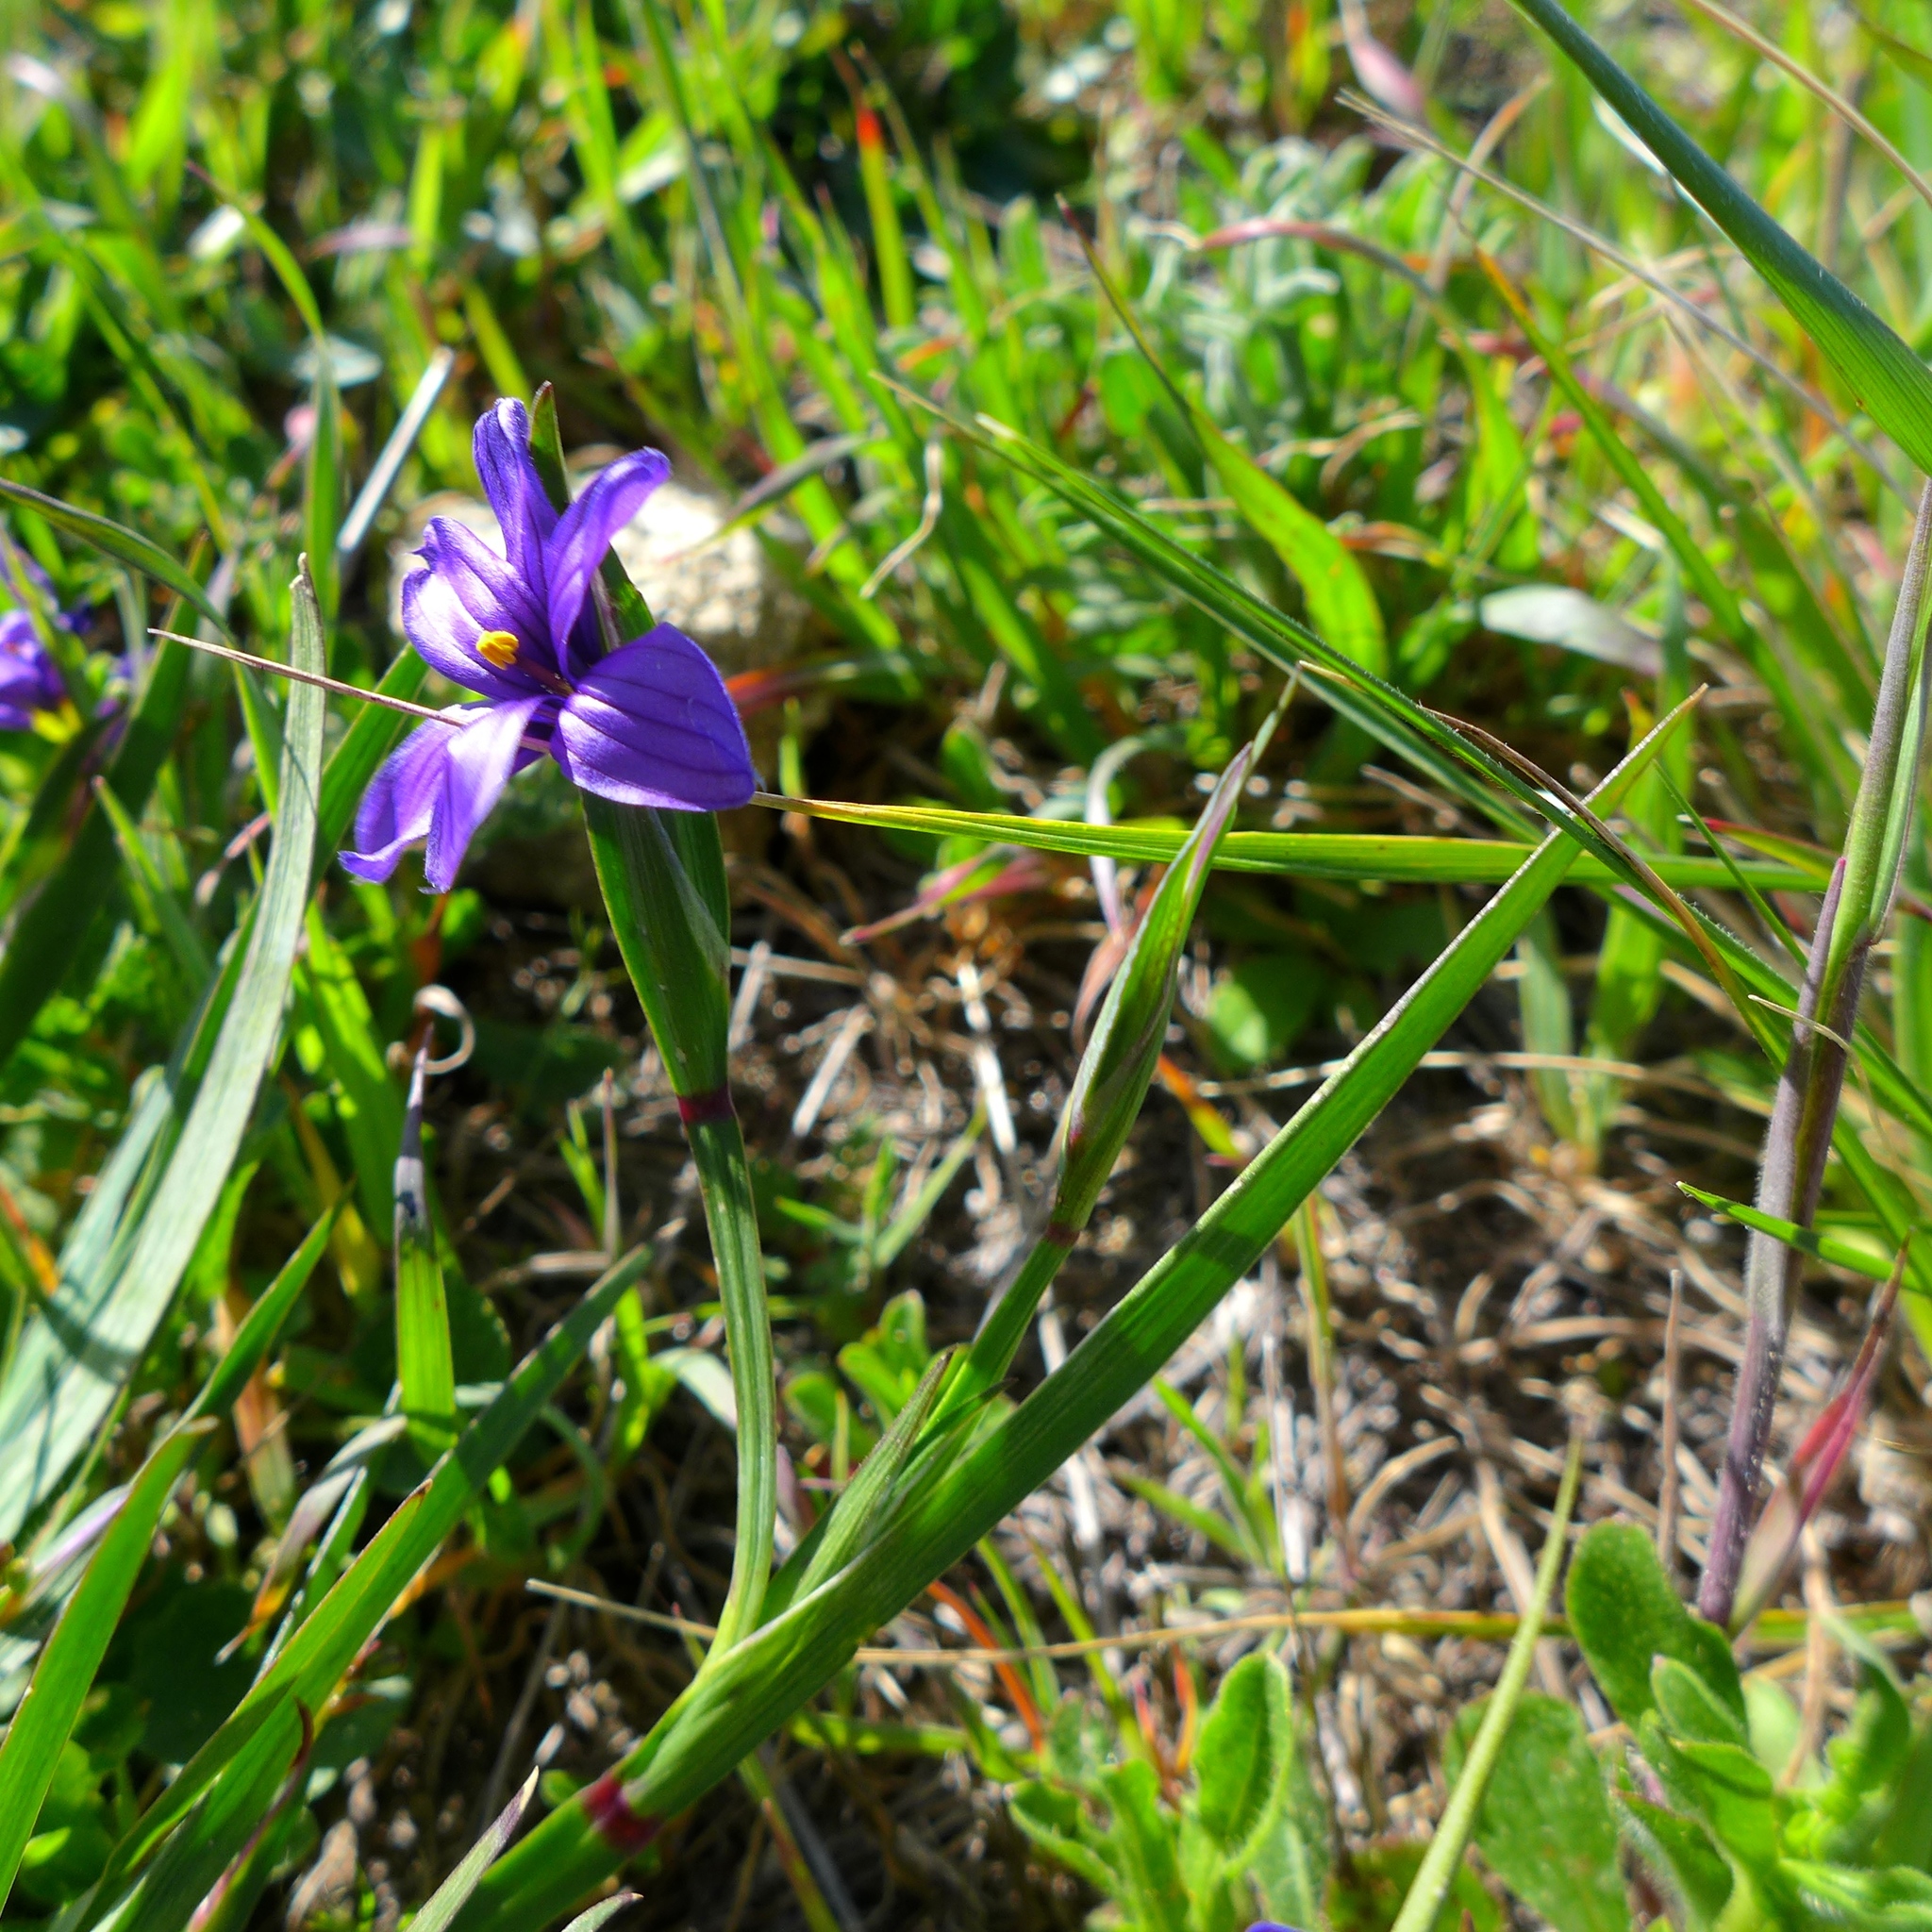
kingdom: Plantae
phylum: Tracheophyta
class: Liliopsida
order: Asparagales
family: Iridaceae
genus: Sisyrinchium
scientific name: Sisyrinchium bellum
